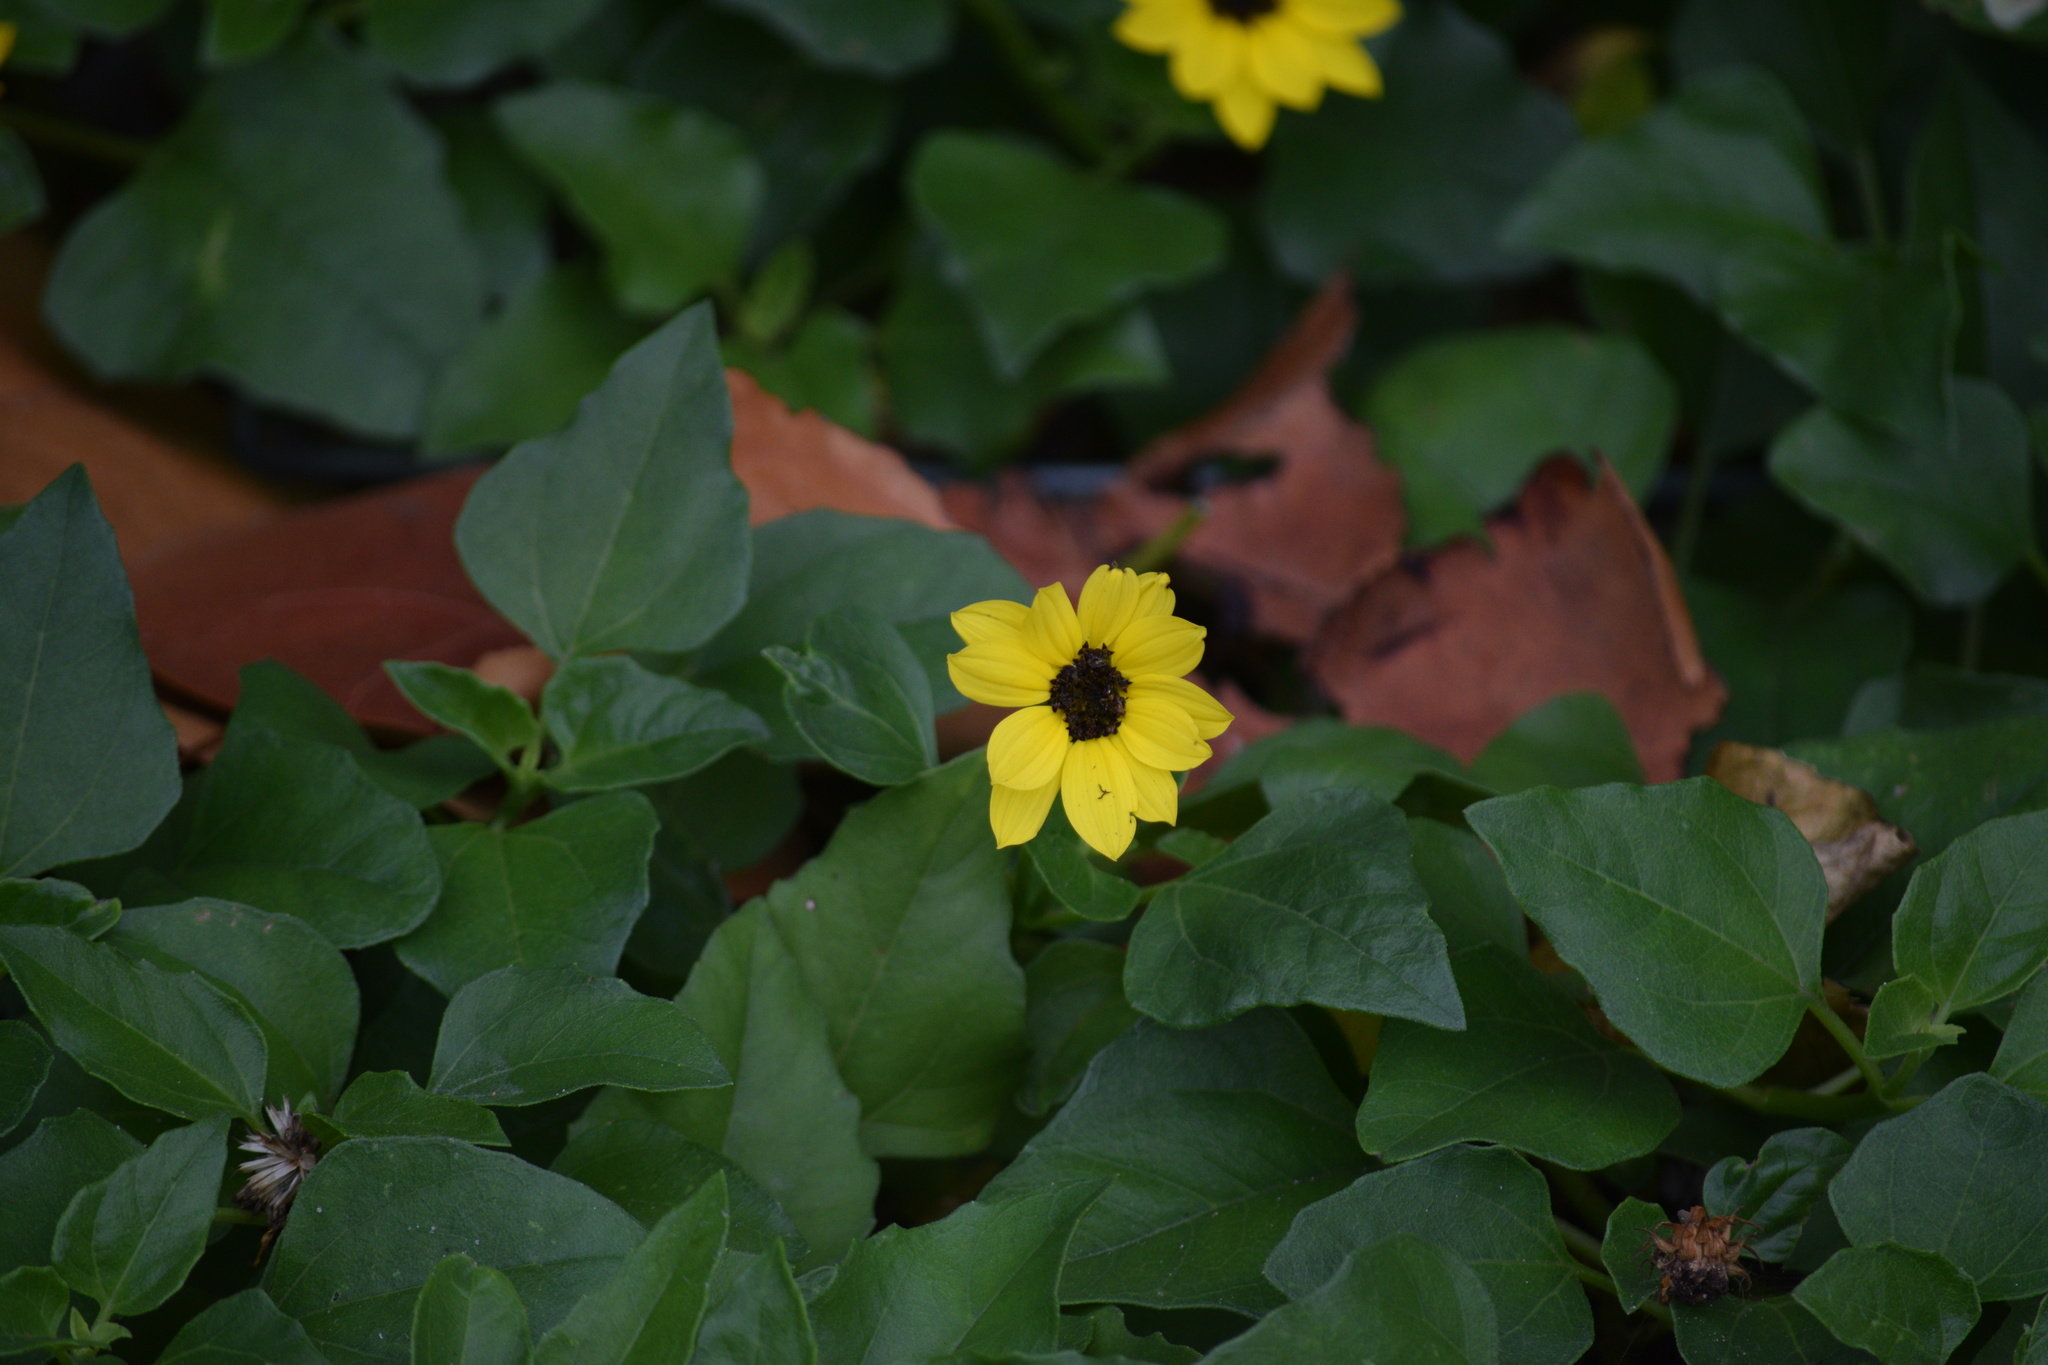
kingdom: Plantae
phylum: Tracheophyta
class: Magnoliopsida
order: Asterales
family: Asteraceae
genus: Helianthus
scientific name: Helianthus debilis
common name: Weak sunflower
